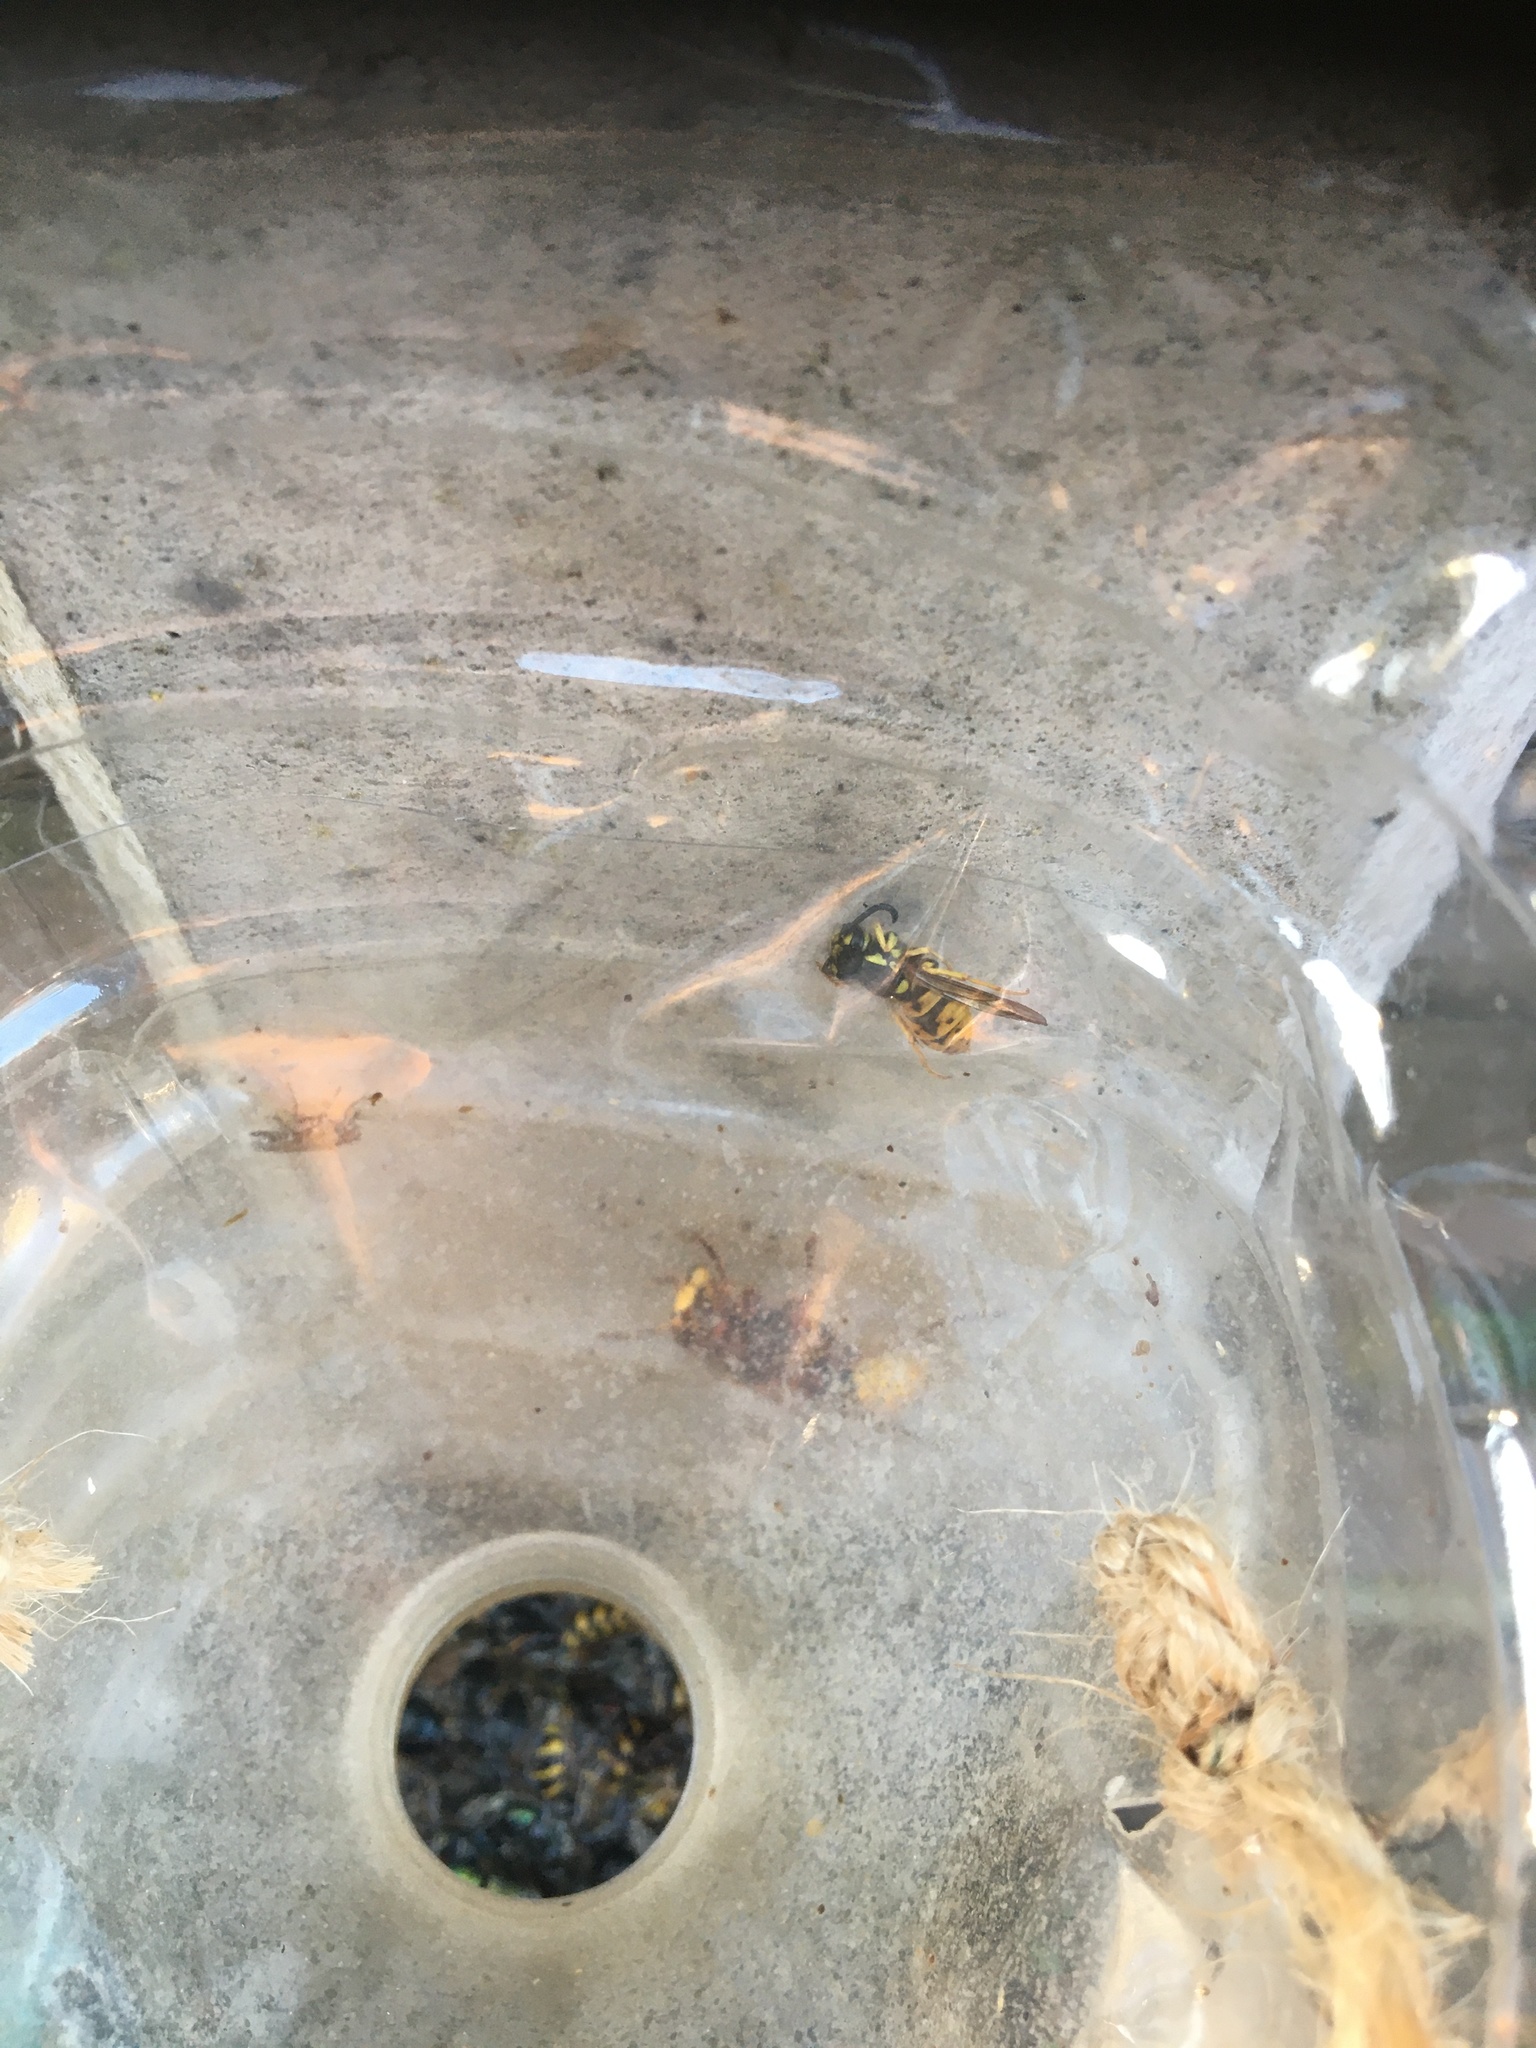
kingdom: Animalia
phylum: Arthropoda
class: Insecta
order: Hymenoptera
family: Vespidae
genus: Vespa
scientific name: Vespa crabro
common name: Hornet
